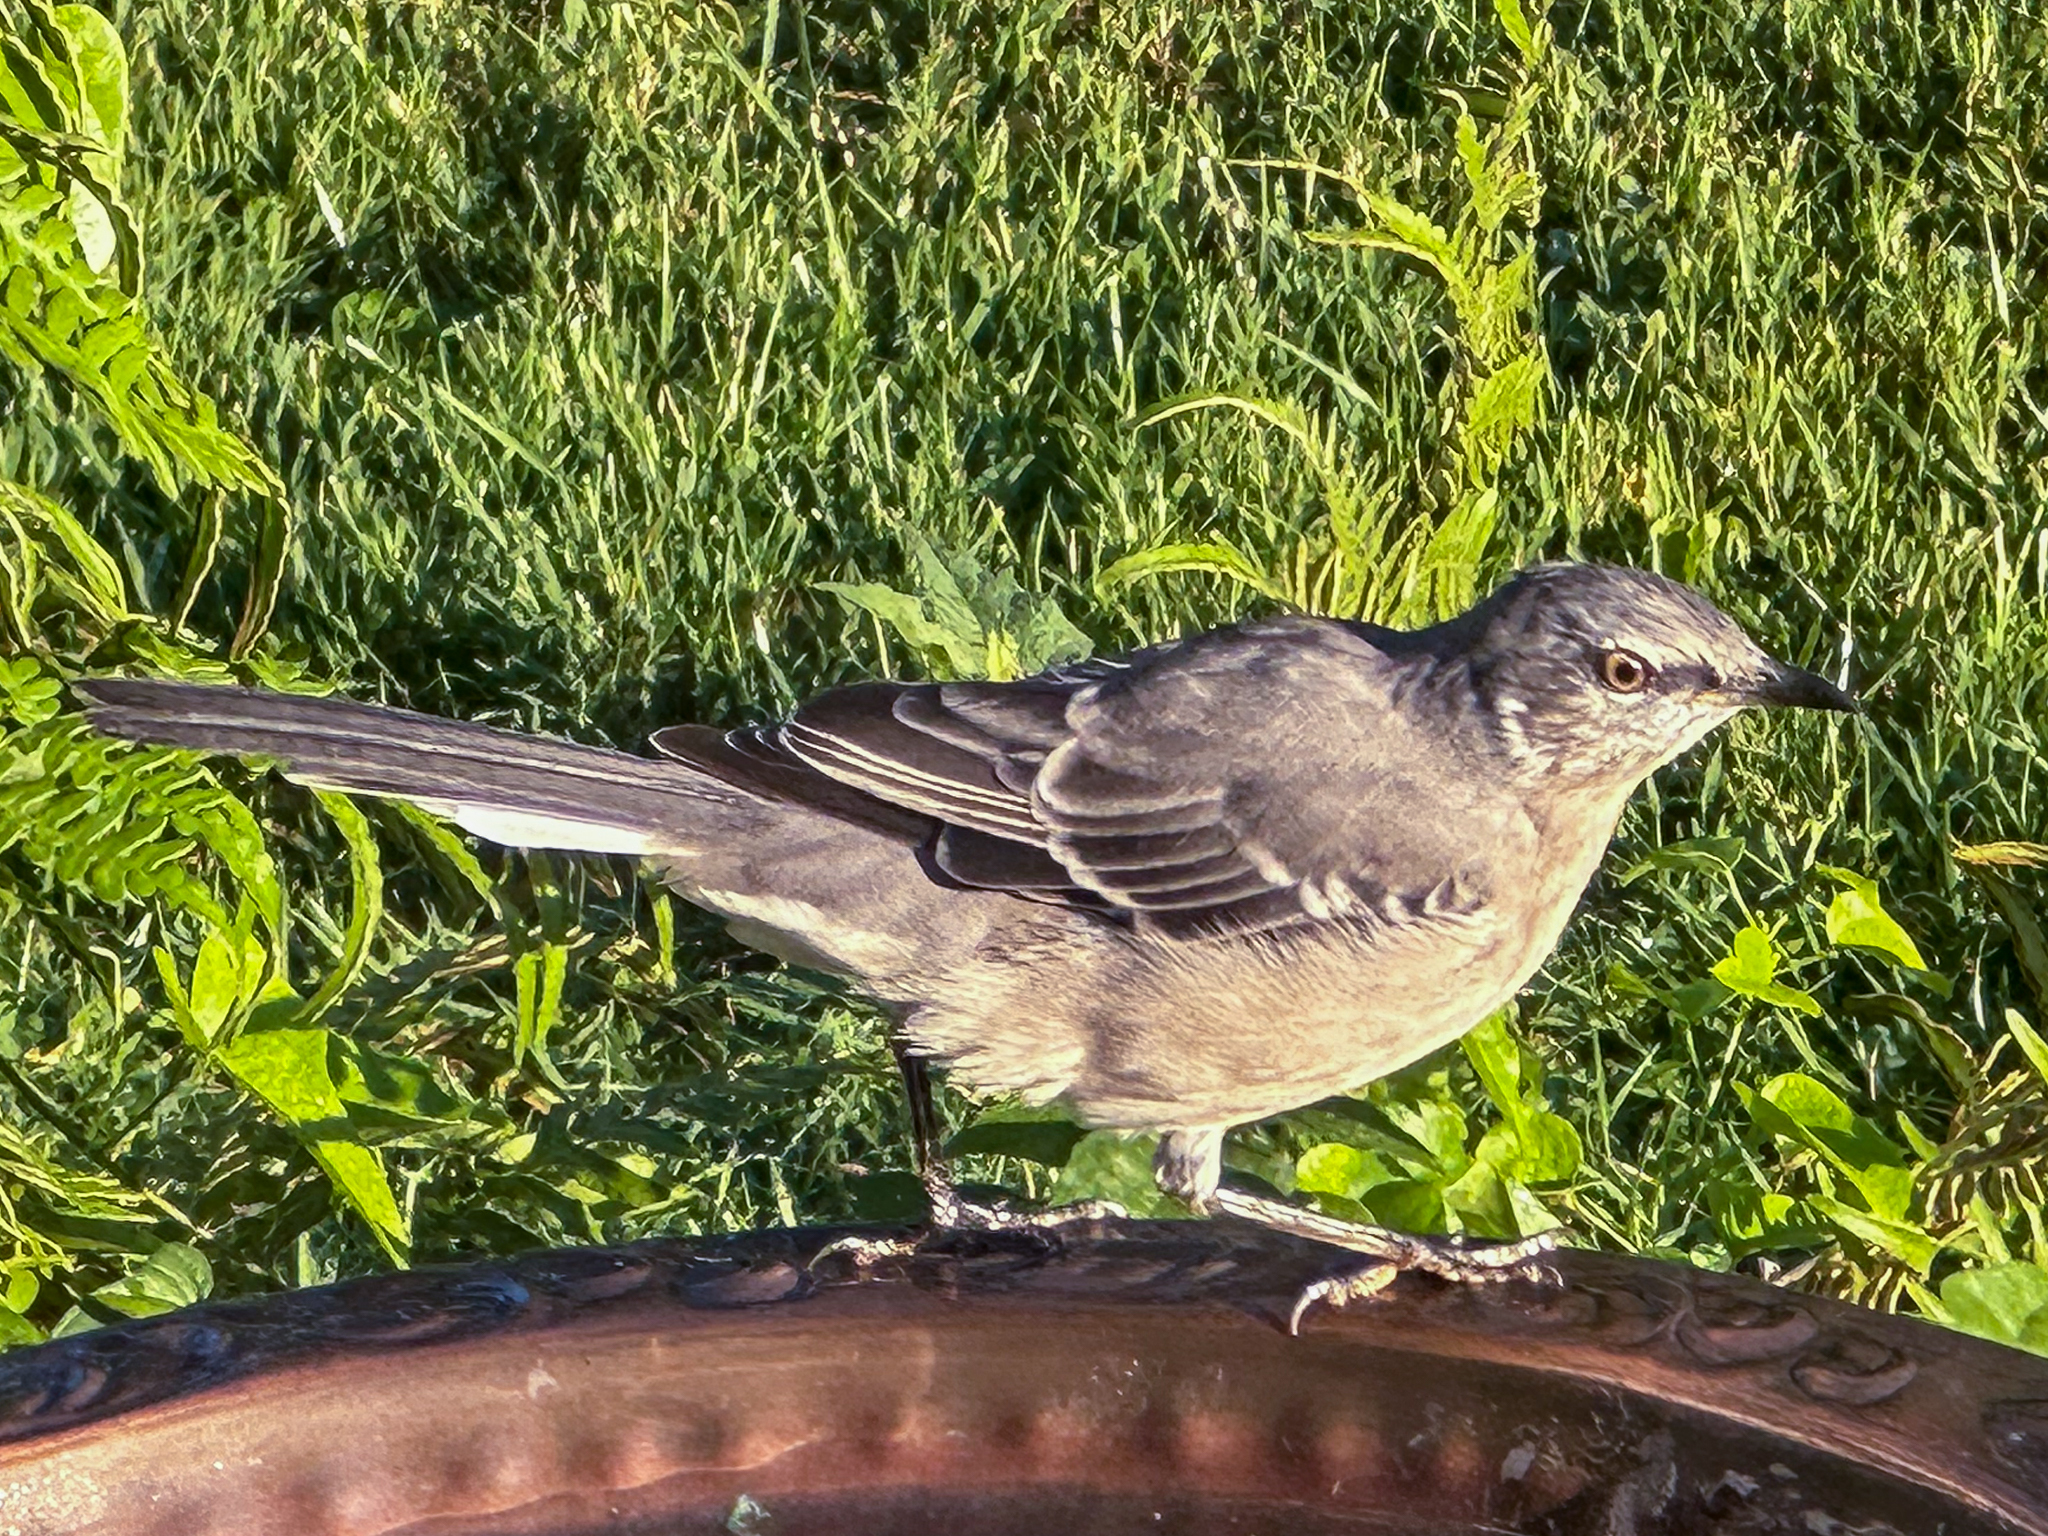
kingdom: Animalia
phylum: Chordata
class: Aves
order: Passeriformes
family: Mimidae
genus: Mimus
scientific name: Mimus polyglottos
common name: Northern mockingbird
